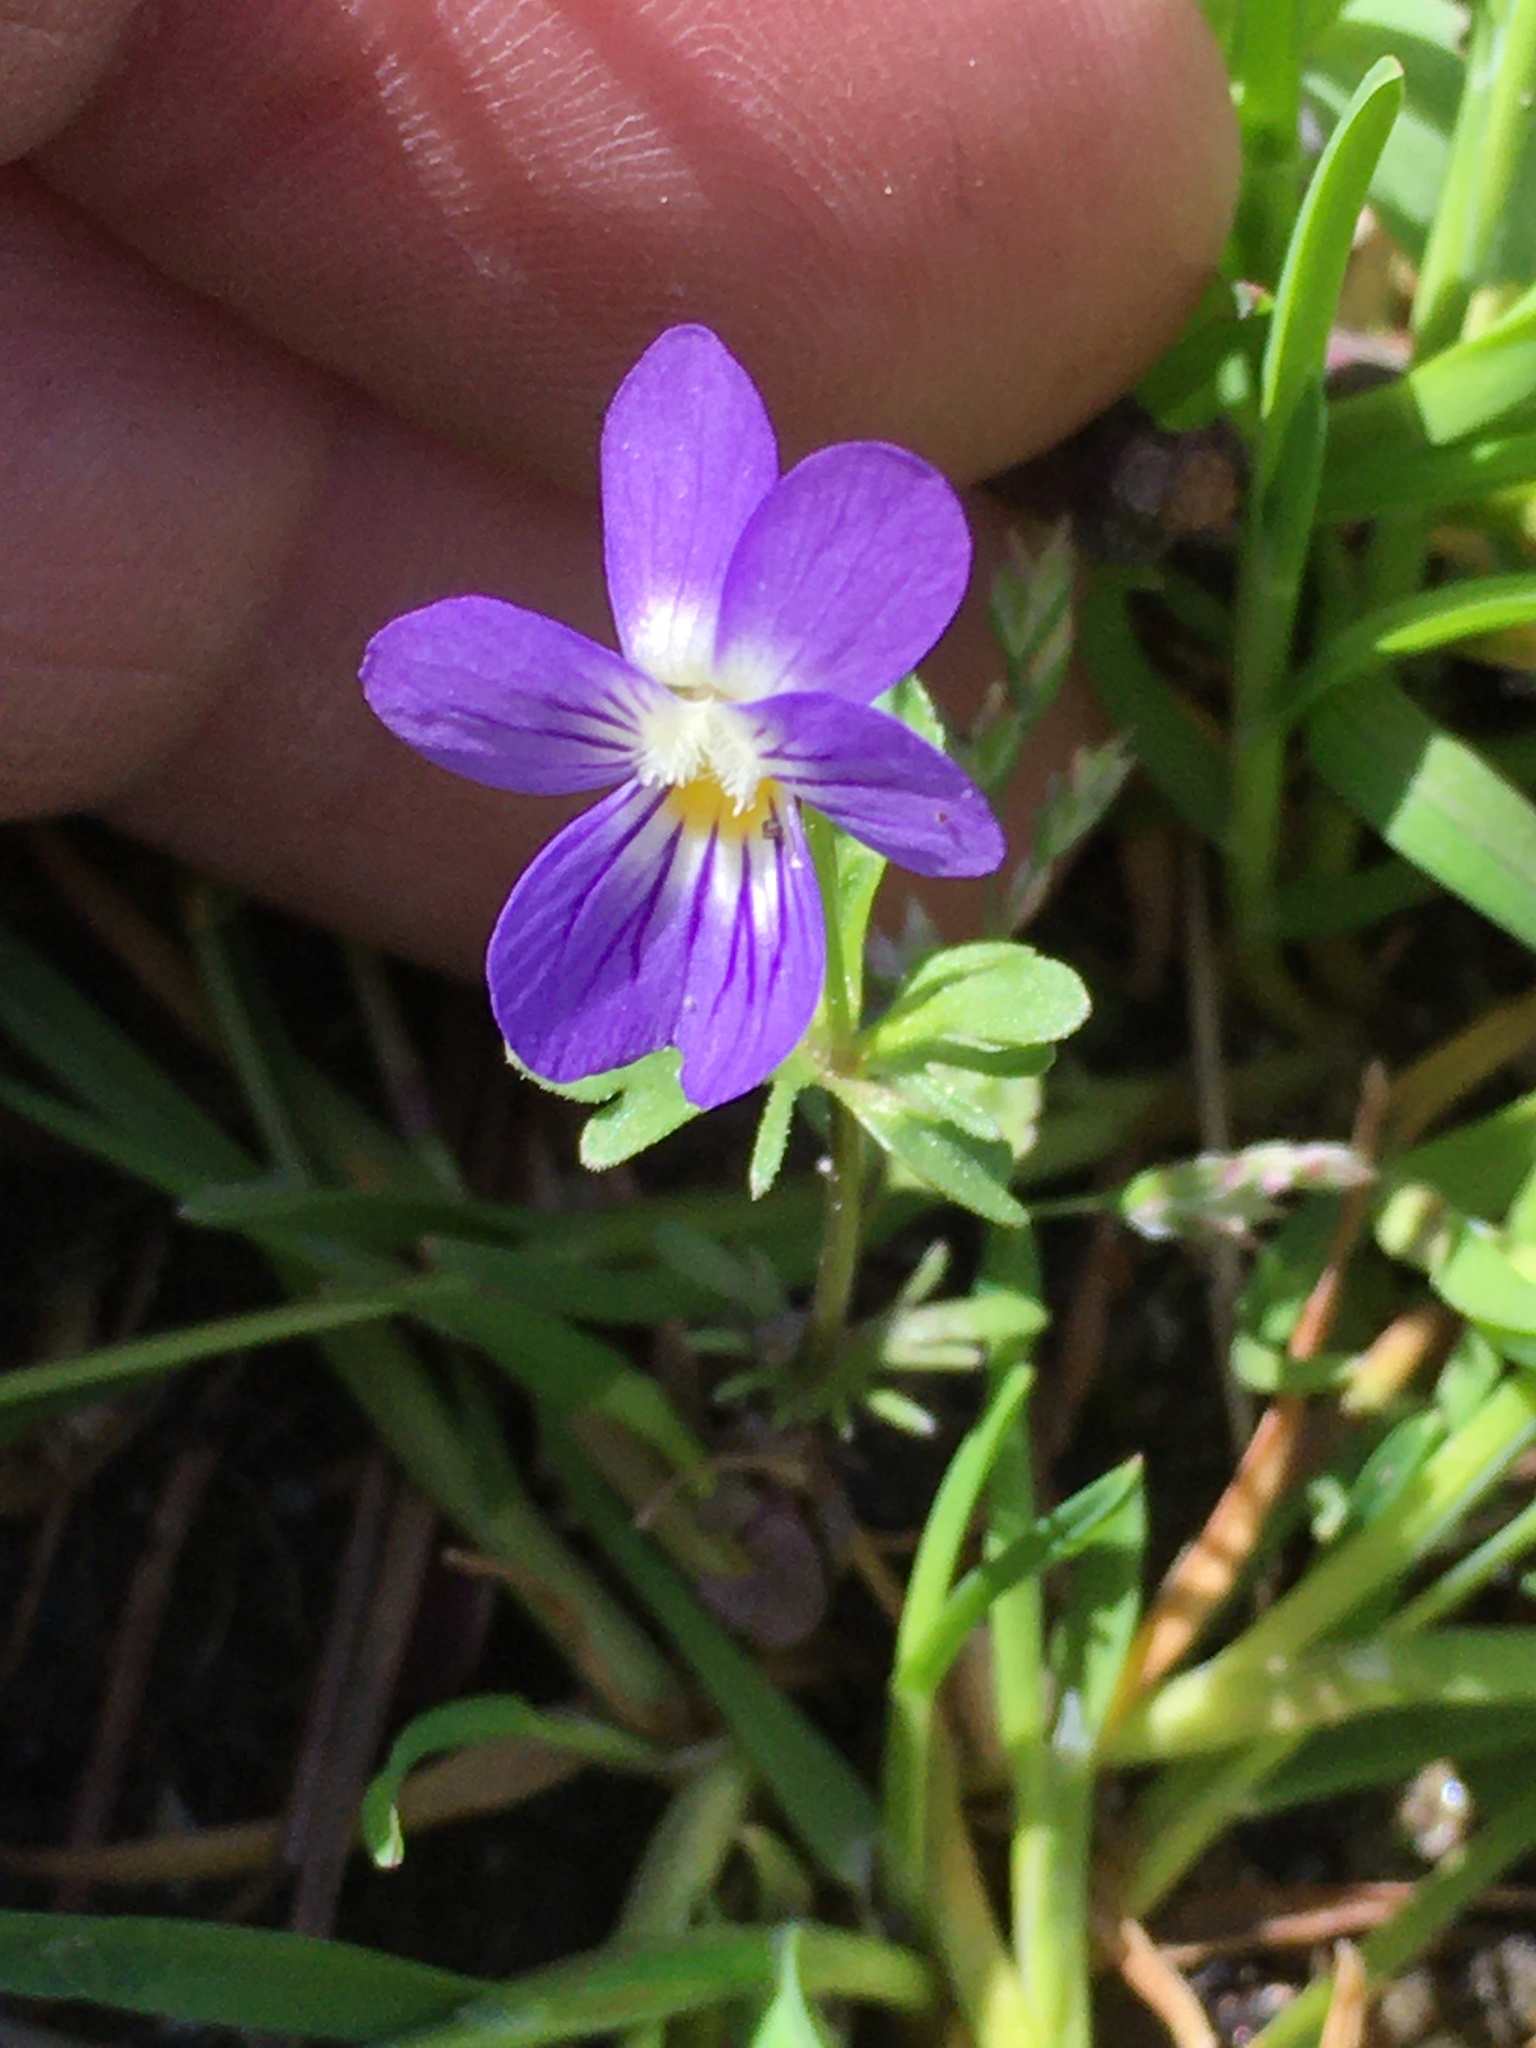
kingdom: Plantae
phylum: Tracheophyta
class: Magnoliopsida
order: Malpighiales
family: Violaceae
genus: Viola
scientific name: Viola rafinesquei
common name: American field pansy
